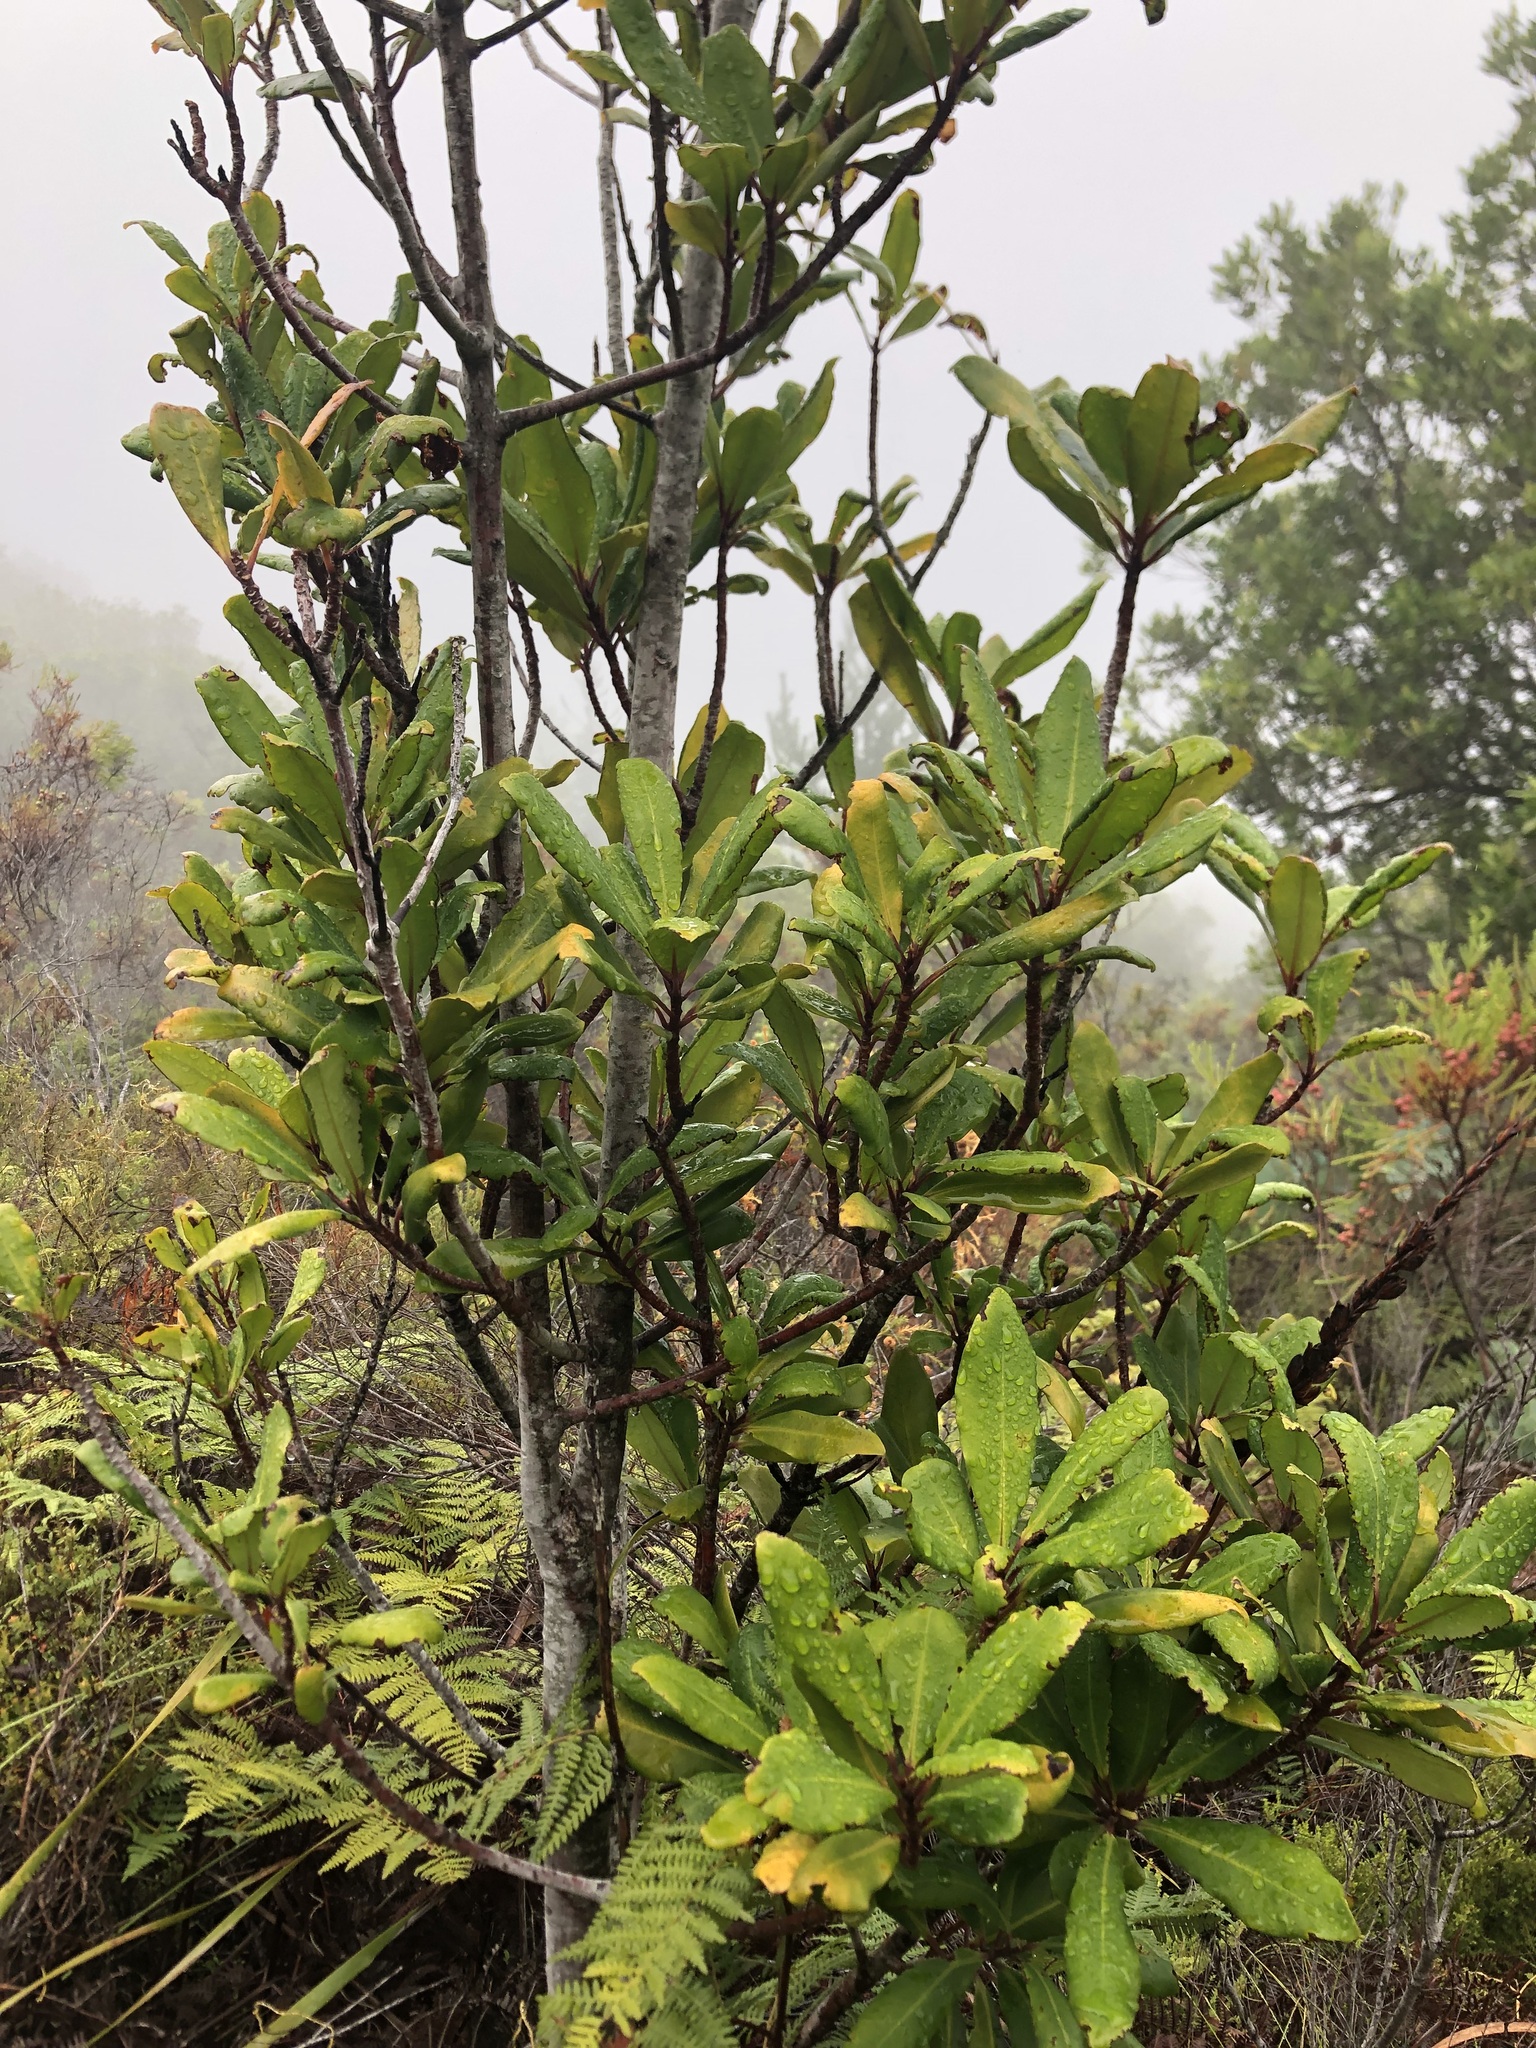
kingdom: Plantae
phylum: Tracheophyta
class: Magnoliopsida
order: Ericales
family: Primulaceae
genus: Myrsine
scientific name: Myrsine melanophloeos
